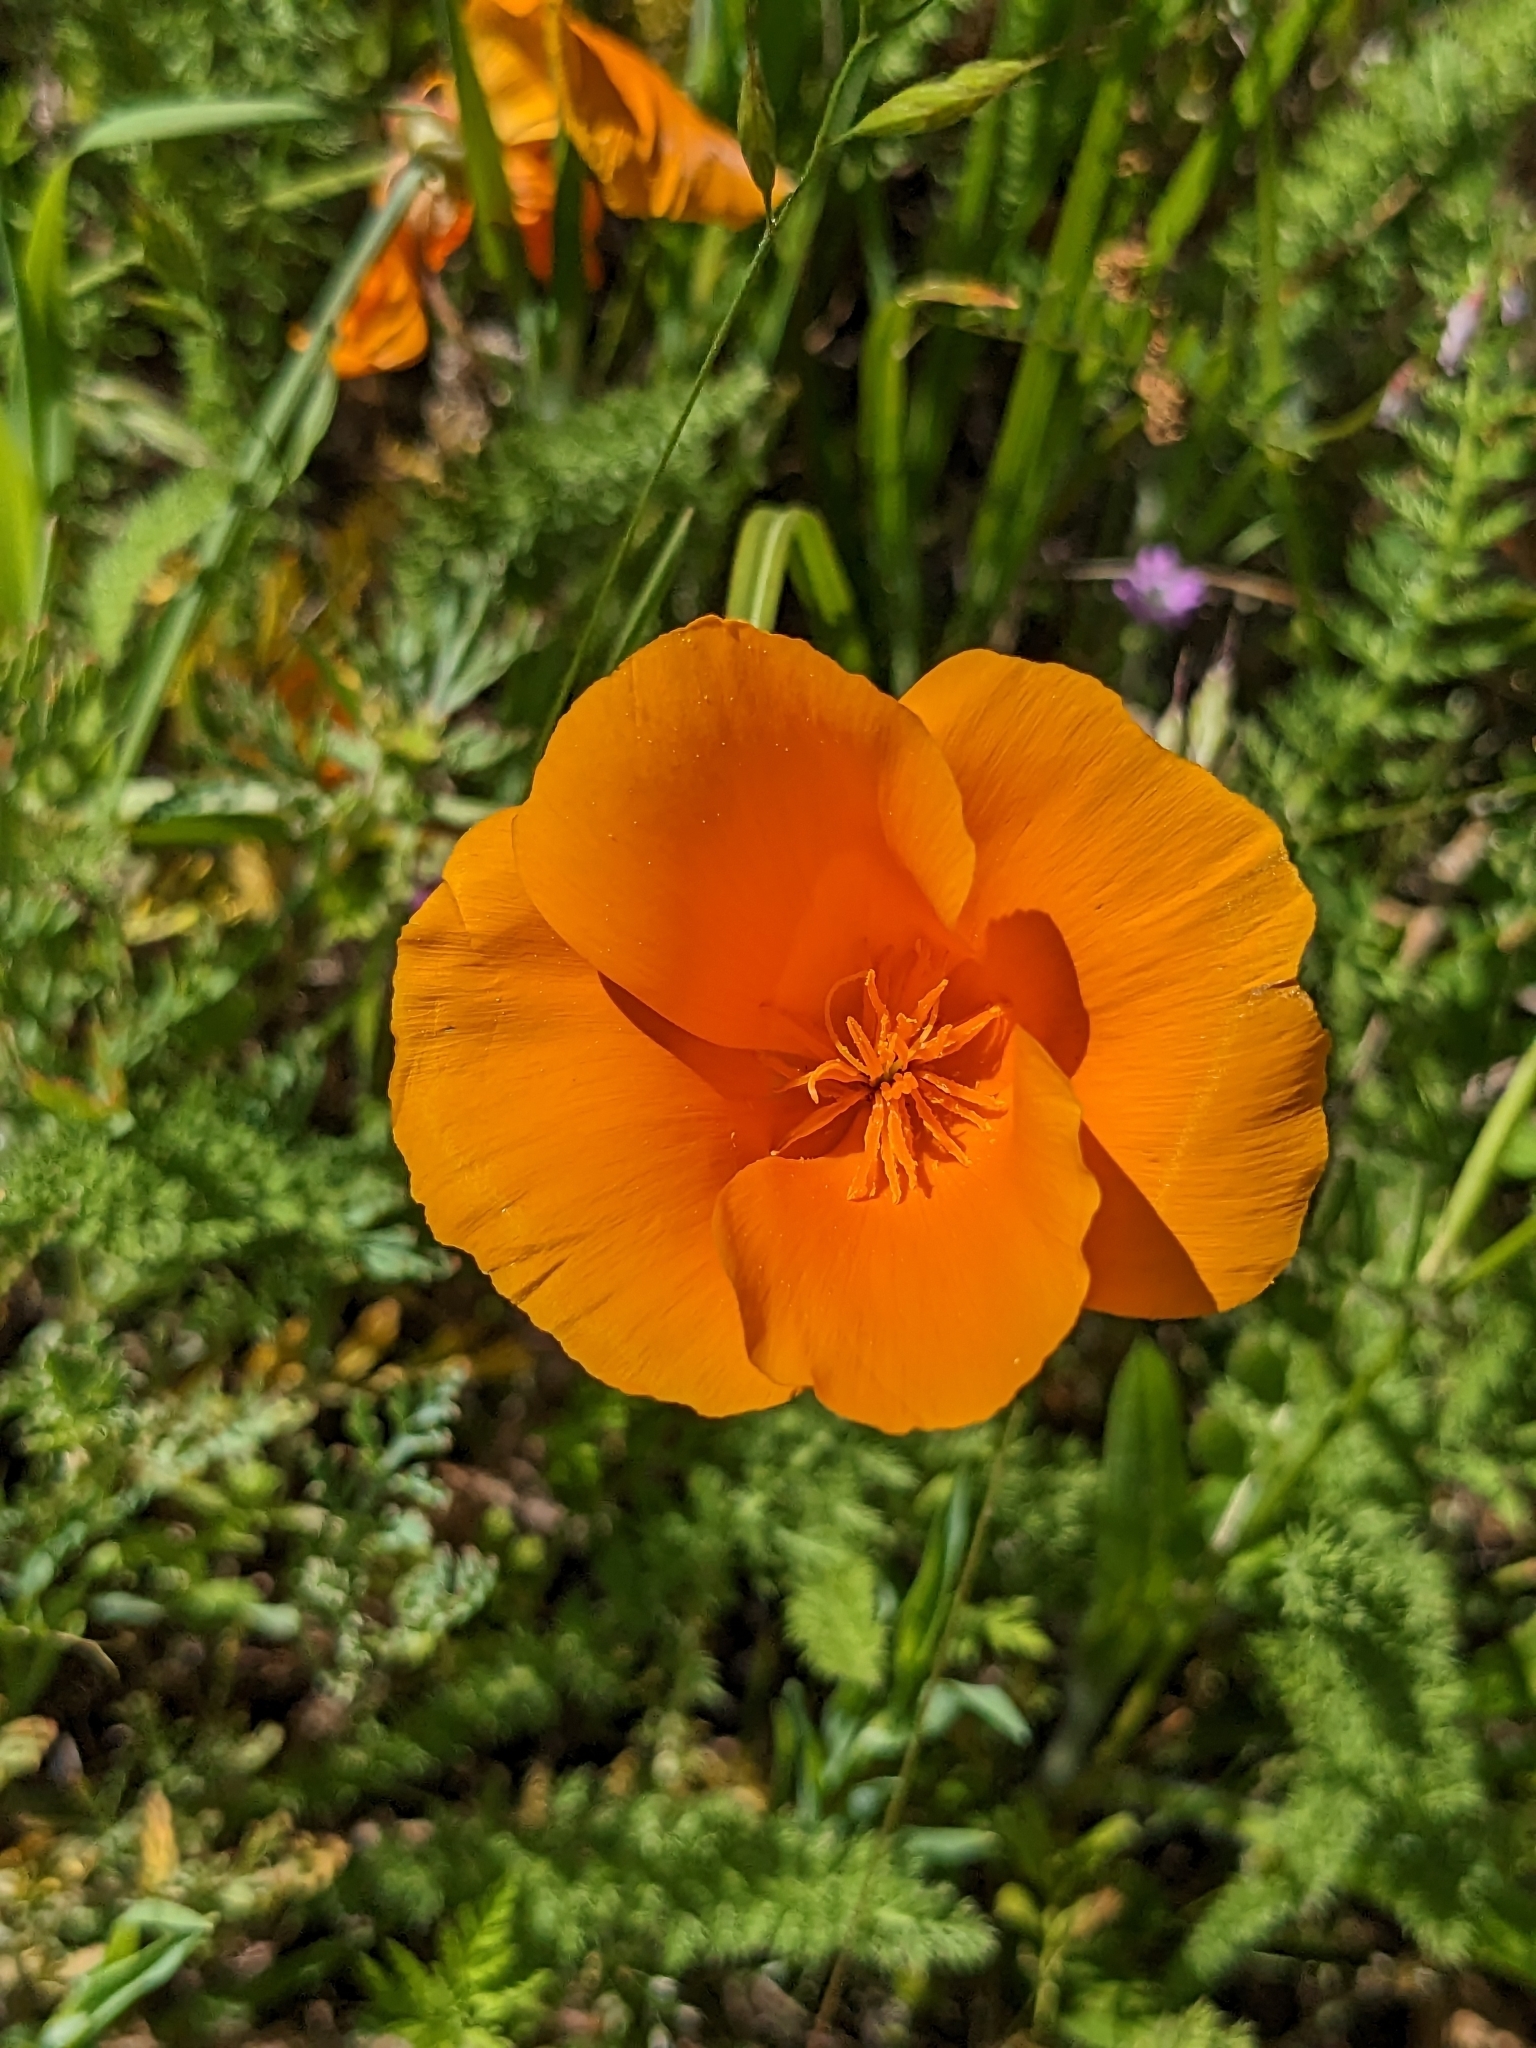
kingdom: Plantae
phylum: Tracheophyta
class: Magnoliopsida
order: Ranunculales
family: Papaveraceae
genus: Eschscholzia
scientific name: Eschscholzia californica
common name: California poppy
